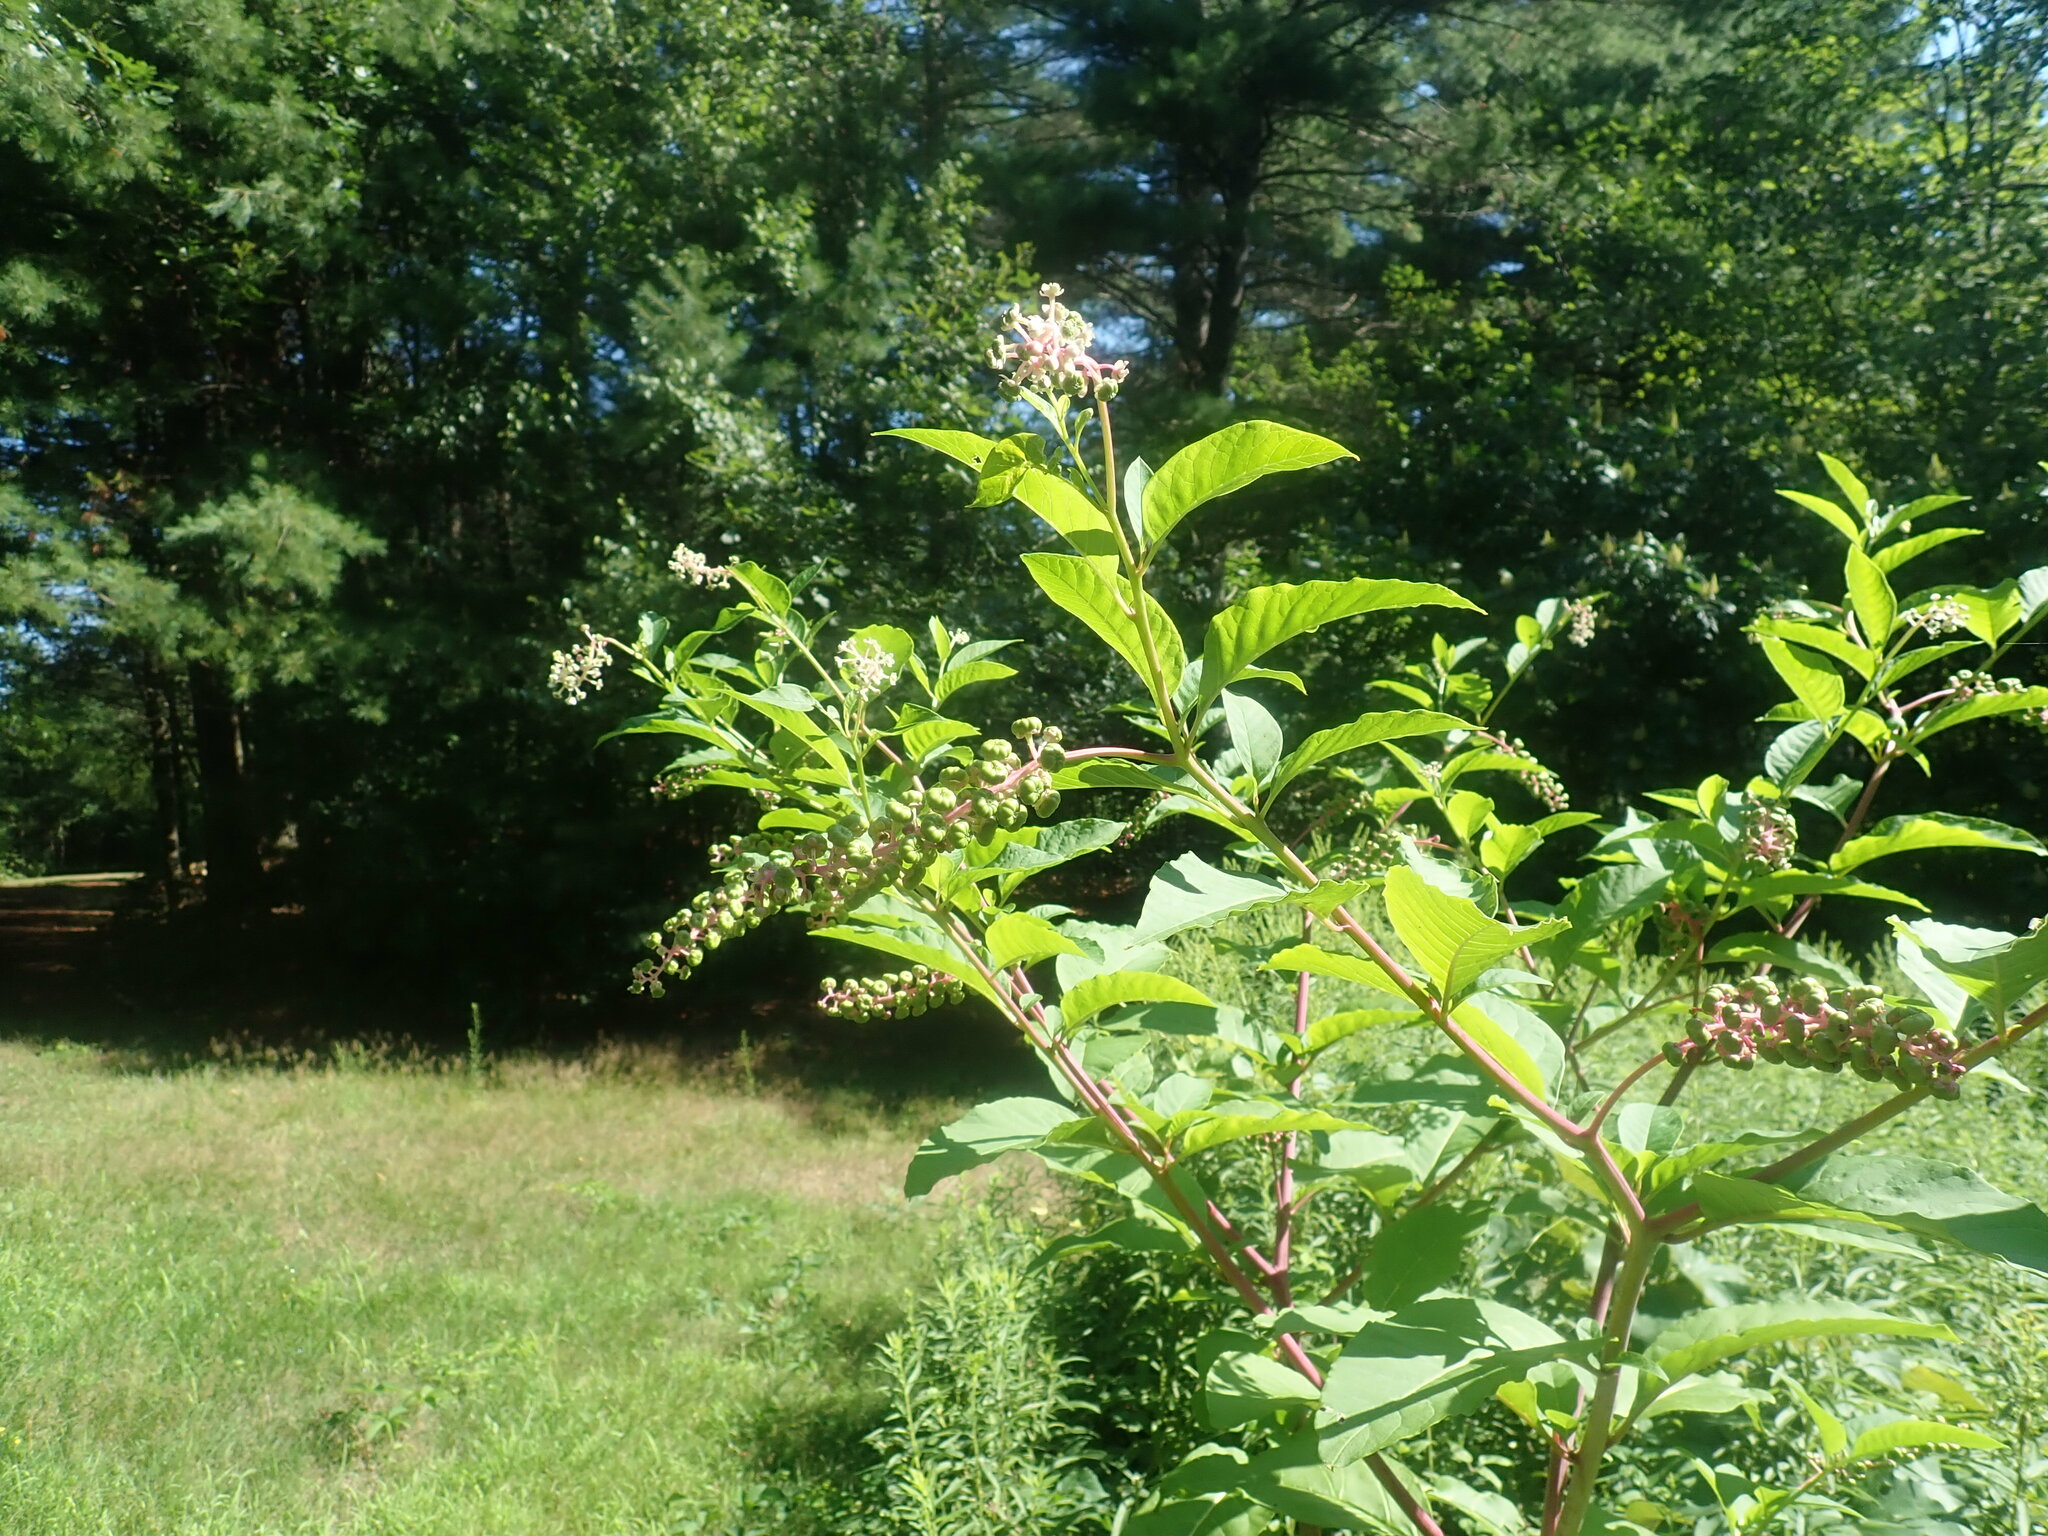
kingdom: Plantae
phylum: Tracheophyta
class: Magnoliopsida
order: Caryophyllales
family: Phytolaccaceae
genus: Phytolacca
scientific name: Phytolacca americana
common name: American pokeweed
